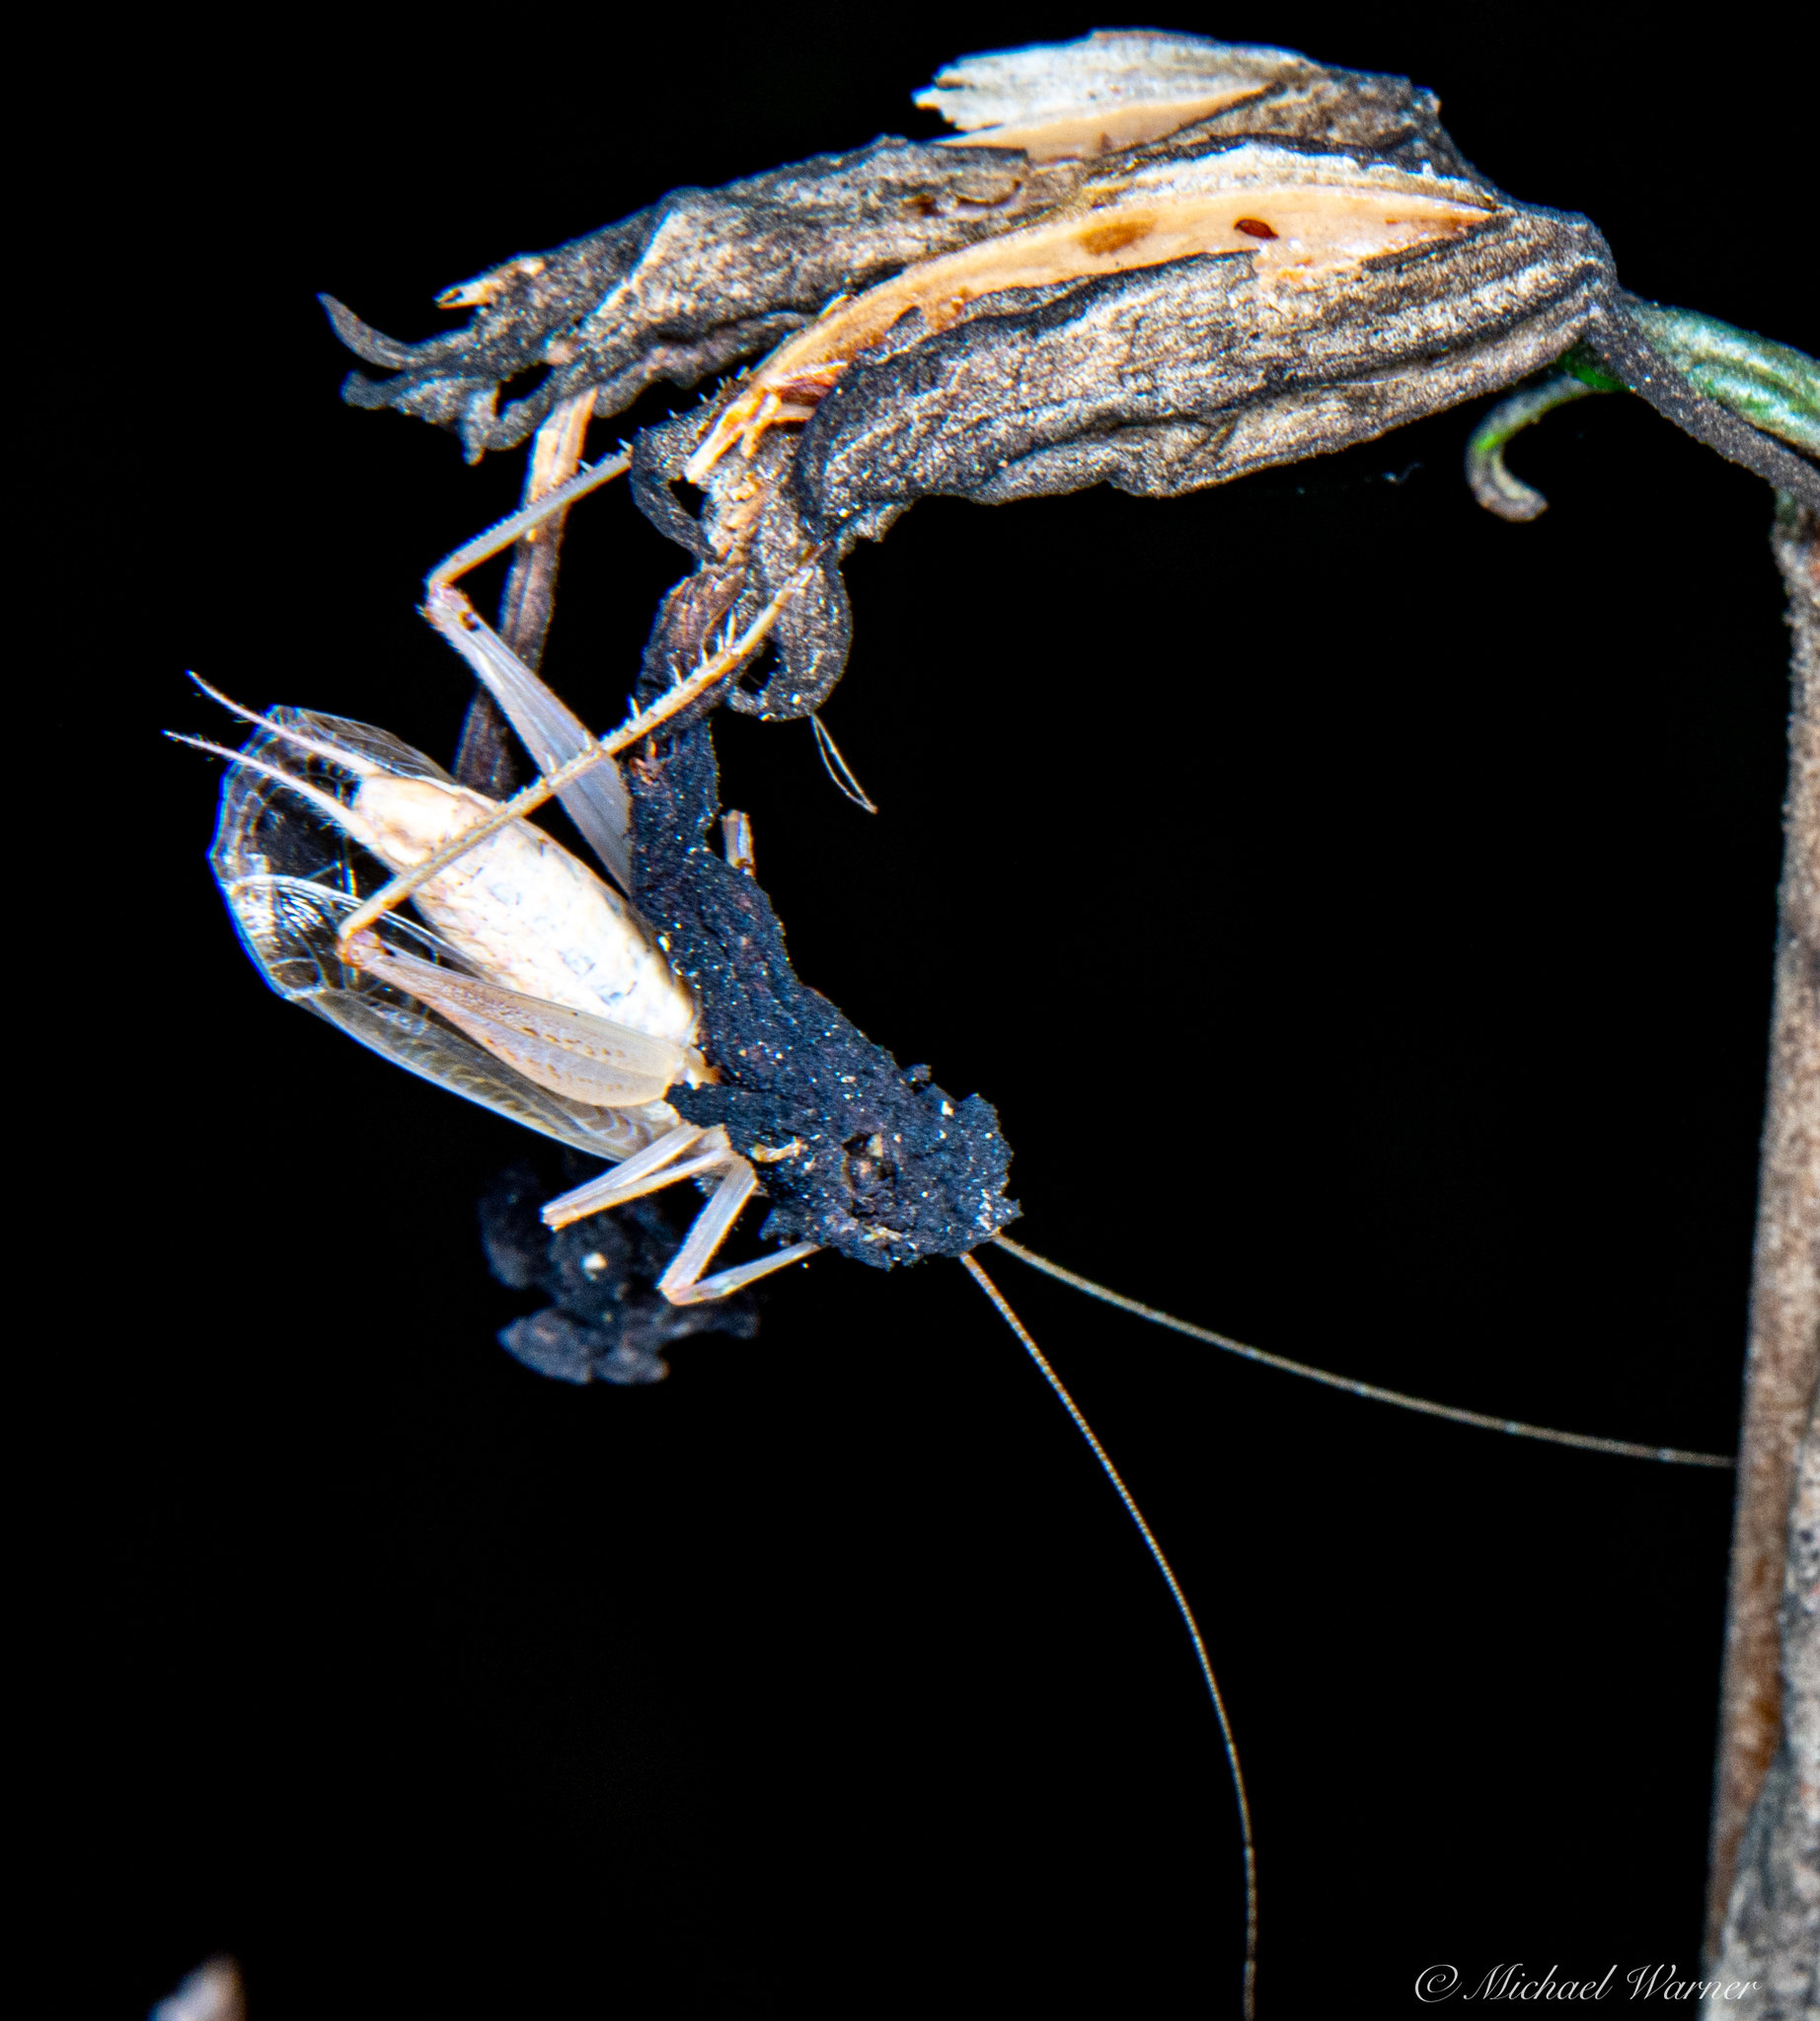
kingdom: Animalia
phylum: Arthropoda
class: Insecta
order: Orthoptera
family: Gryllidae
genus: Oecanthus
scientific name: Oecanthus californicus
